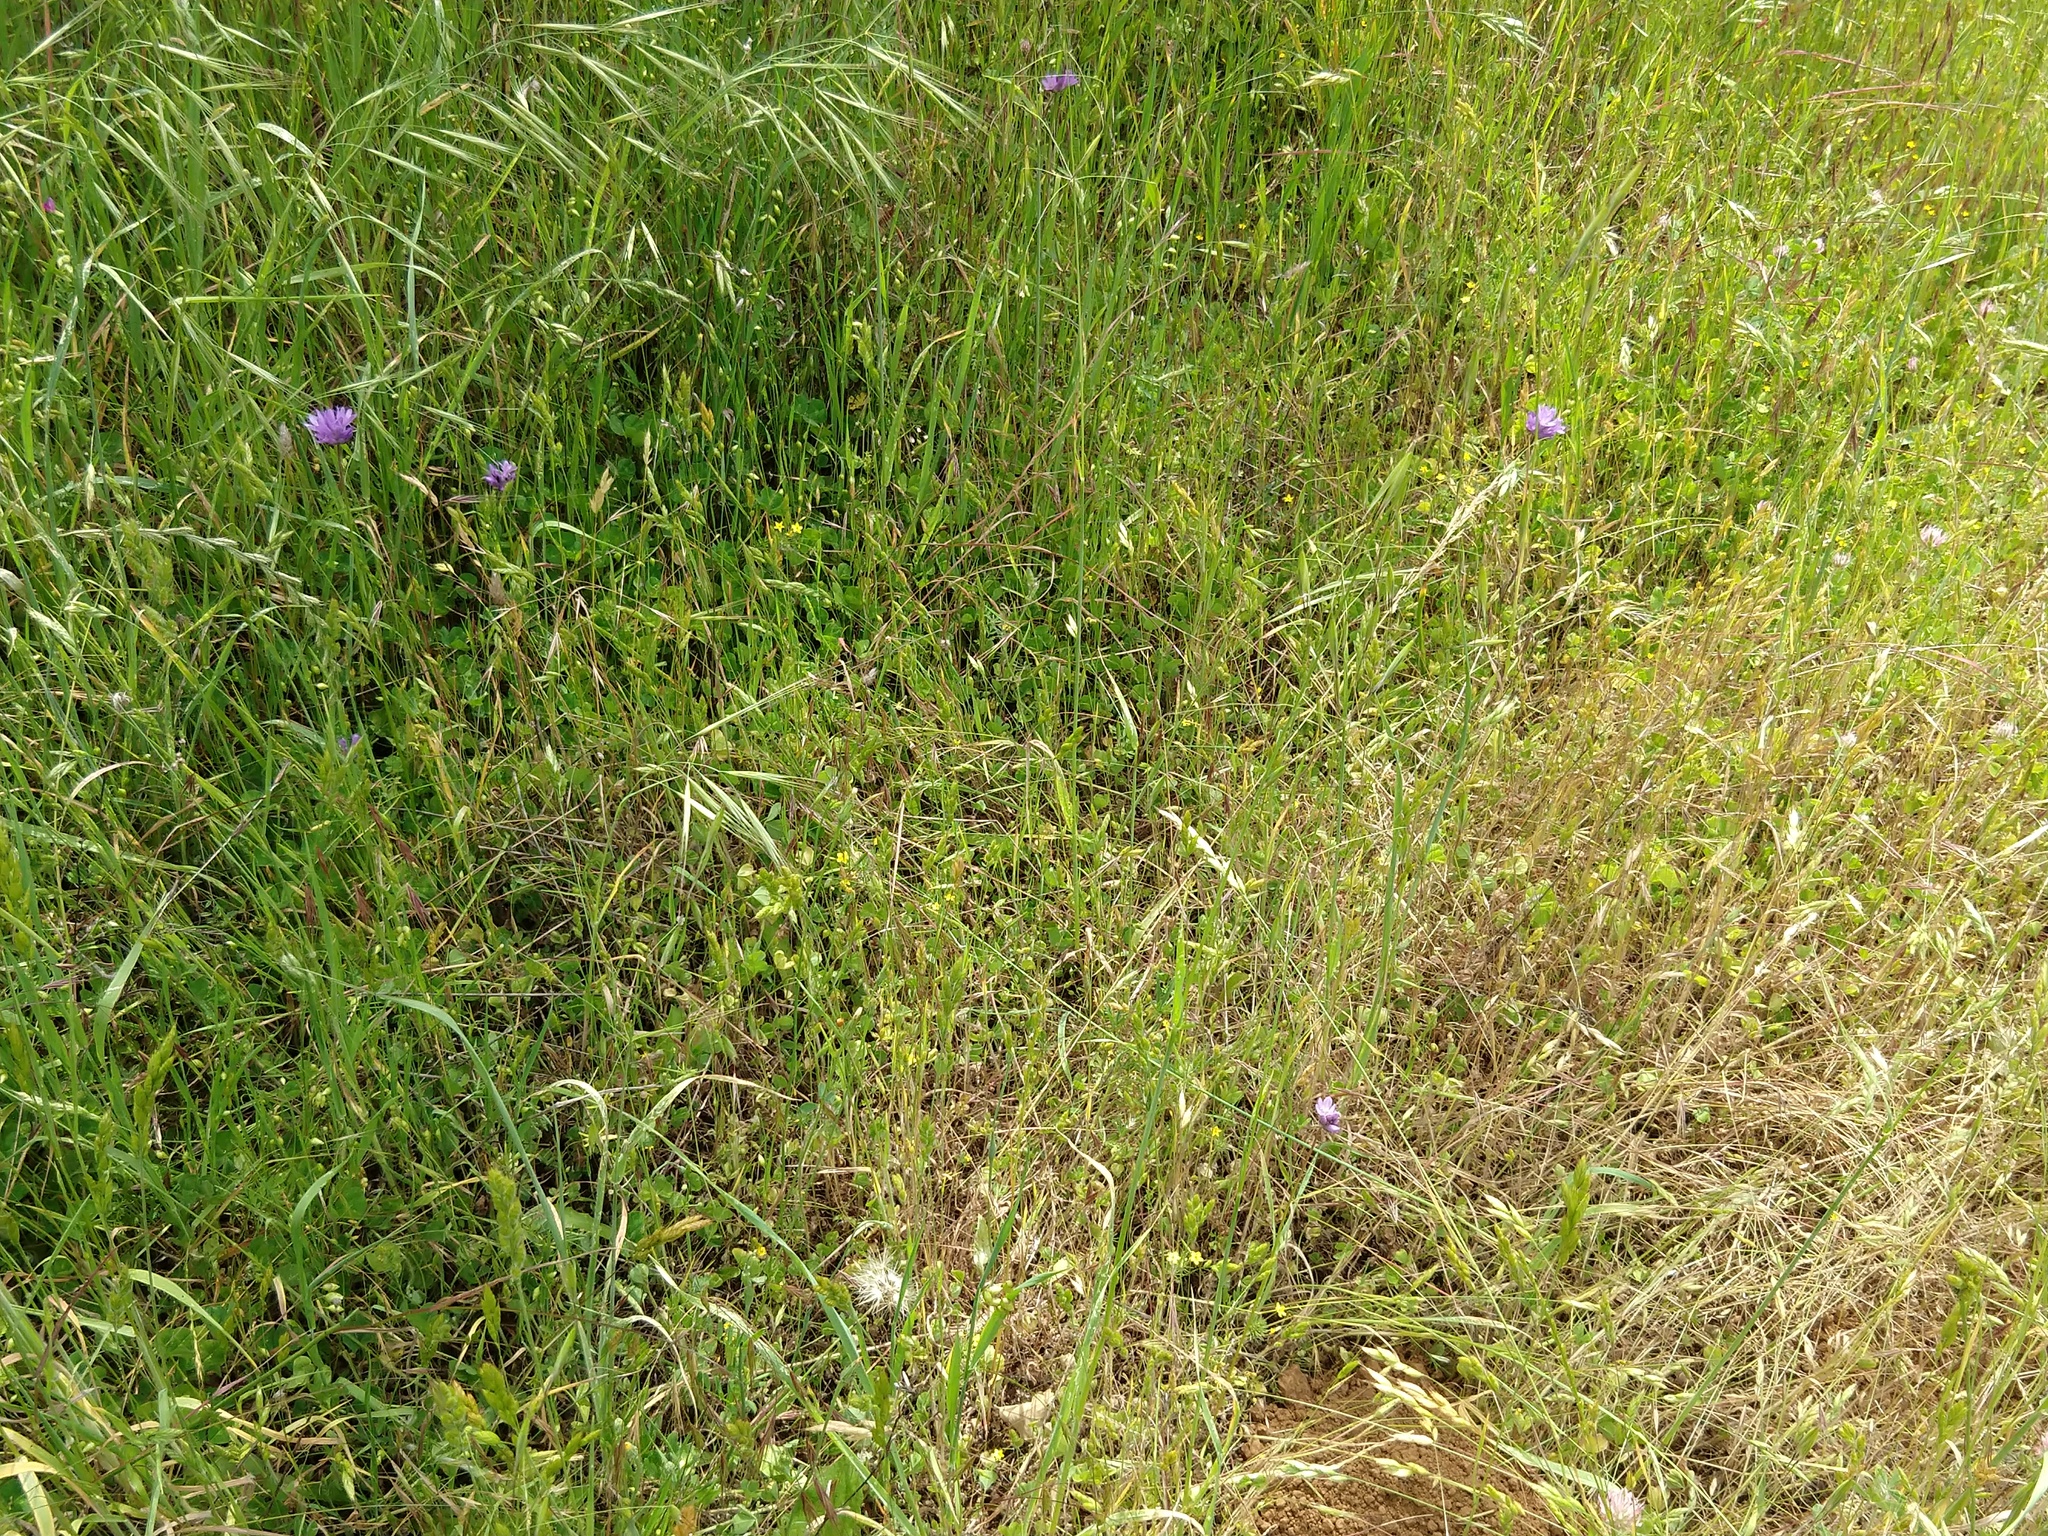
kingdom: Plantae
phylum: Tracheophyta
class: Magnoliopsida
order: Ericales
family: Polemoniaceae
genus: Leptosiphon
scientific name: Leptosiphon acicularis
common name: Bristly linanthus
